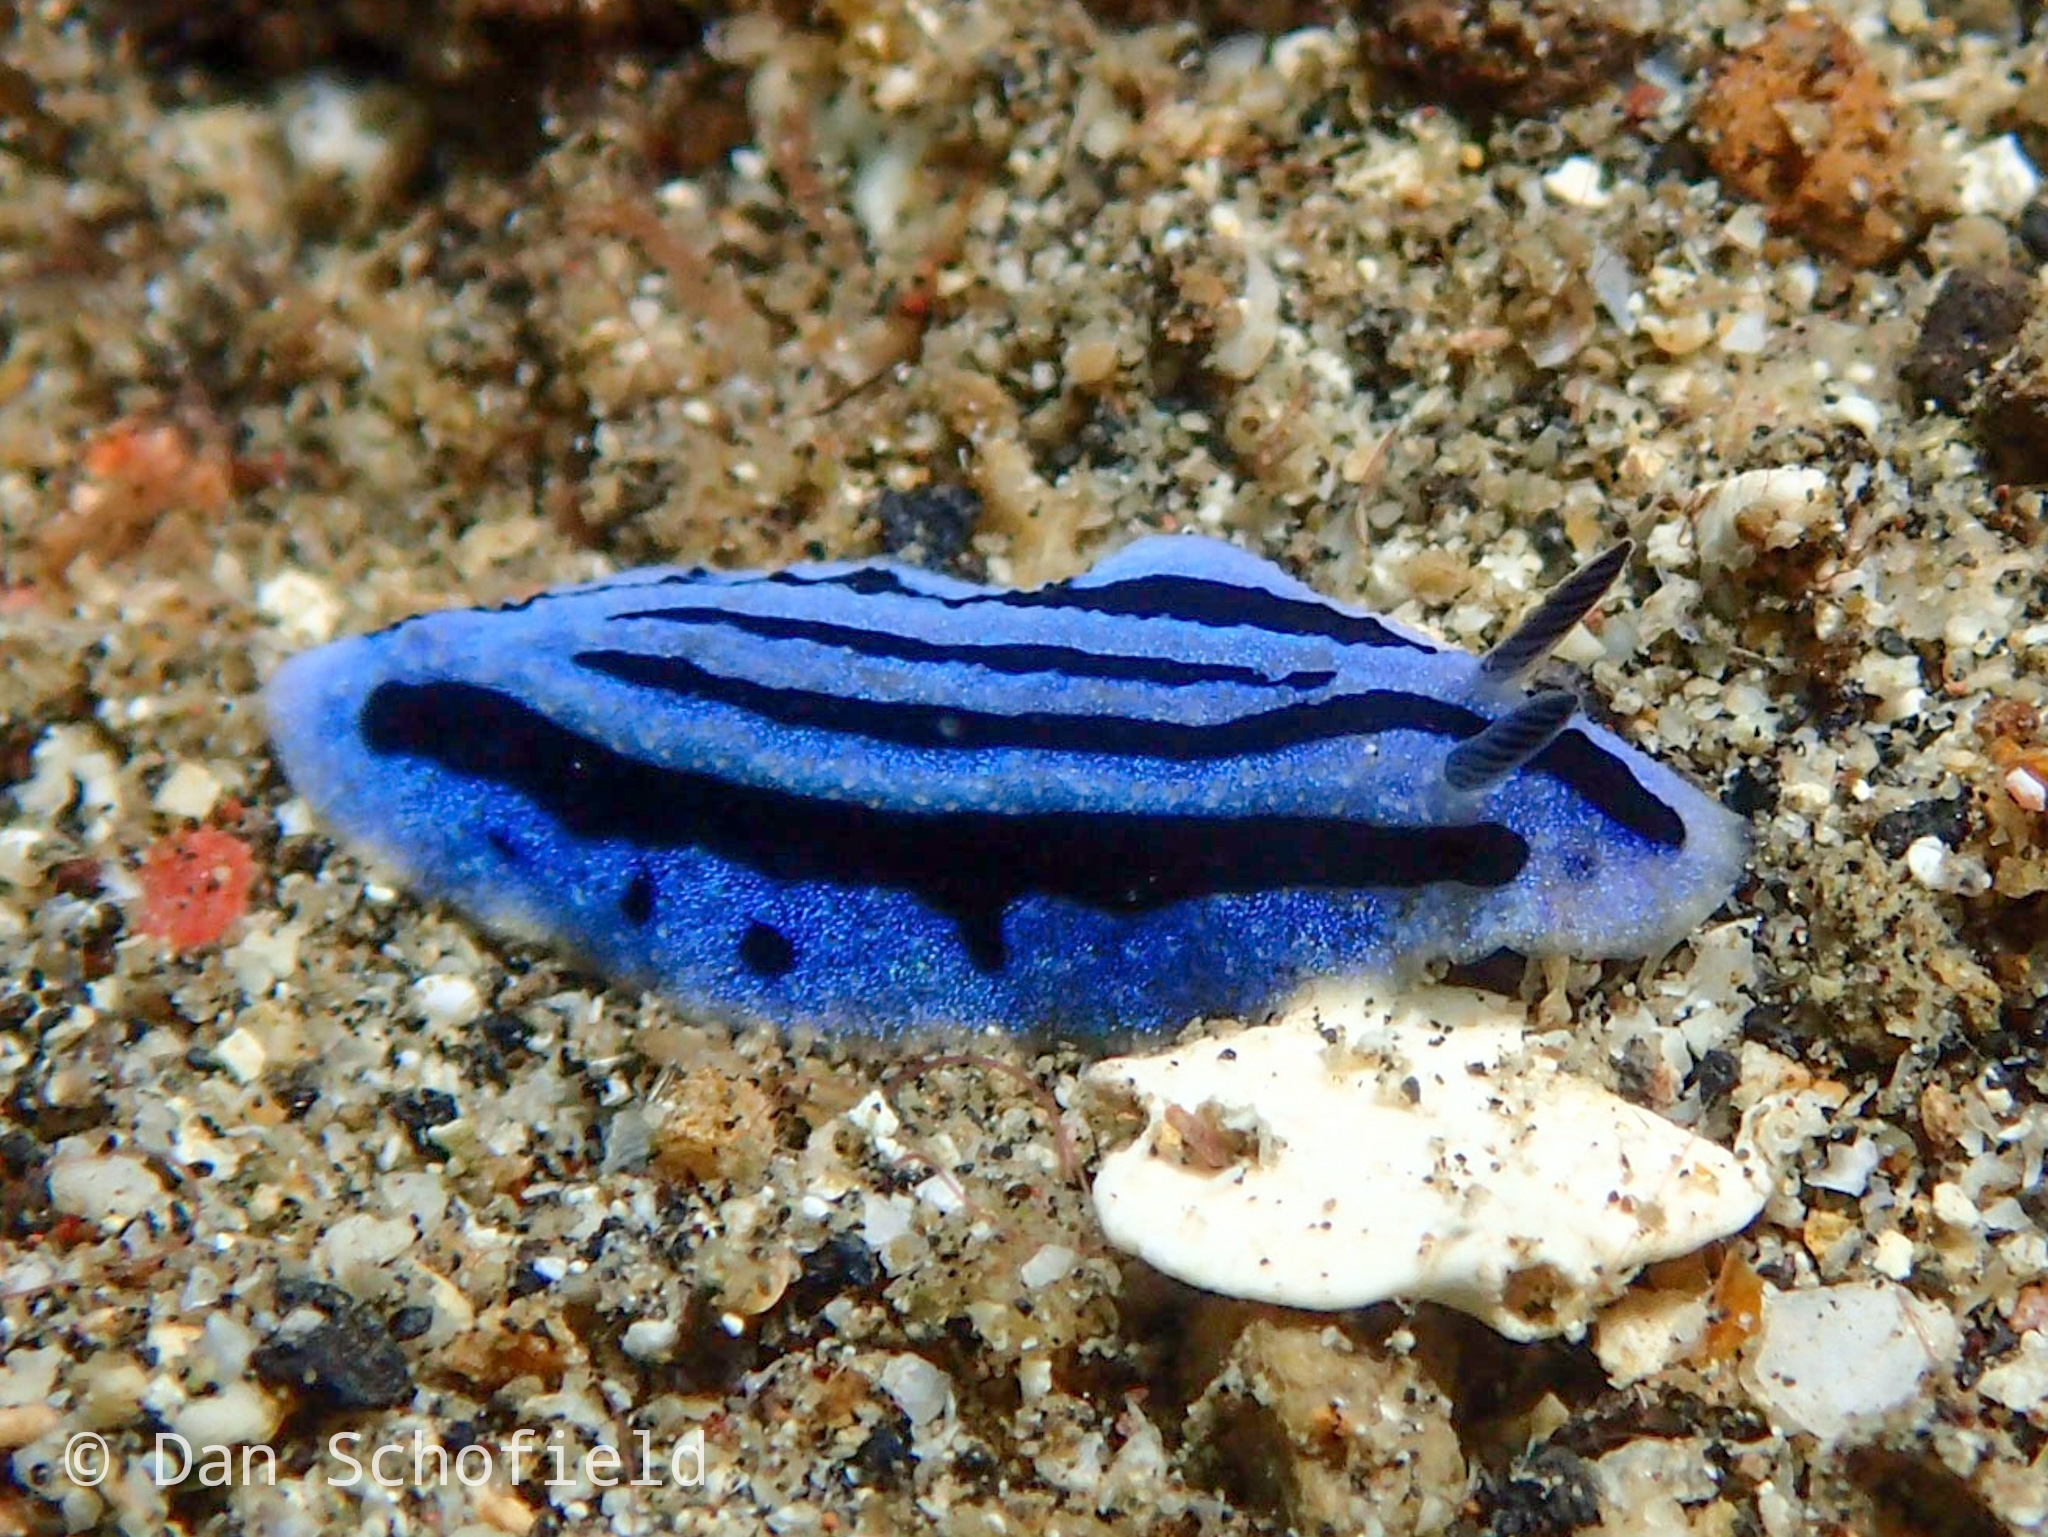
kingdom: Animalia
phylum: Mollusca
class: Gastropoda
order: Nudibranchia
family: Phyllidiidae
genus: Phyllidiopsis
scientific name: Phyllidiopsis annae
